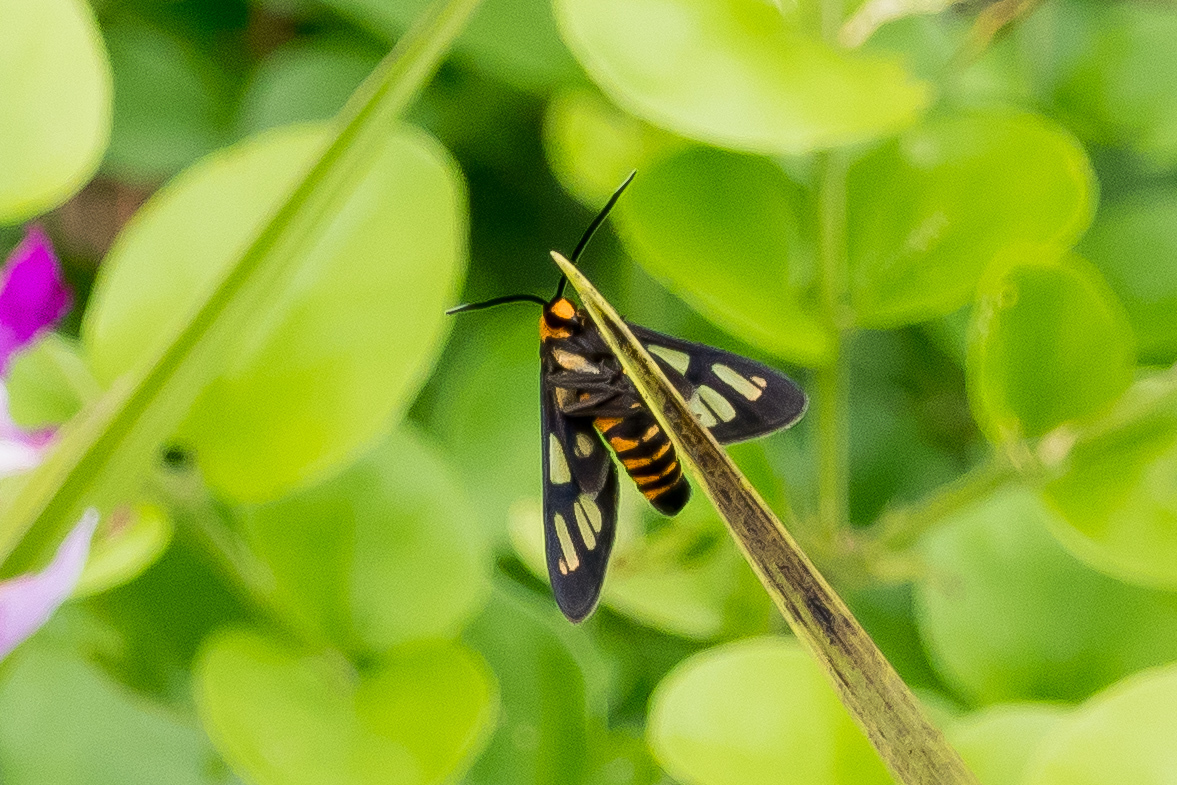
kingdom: Animalia
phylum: Arthropoda
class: Insecta
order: Lepidoptera
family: Erebidae
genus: Amata
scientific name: Amata huebneri
